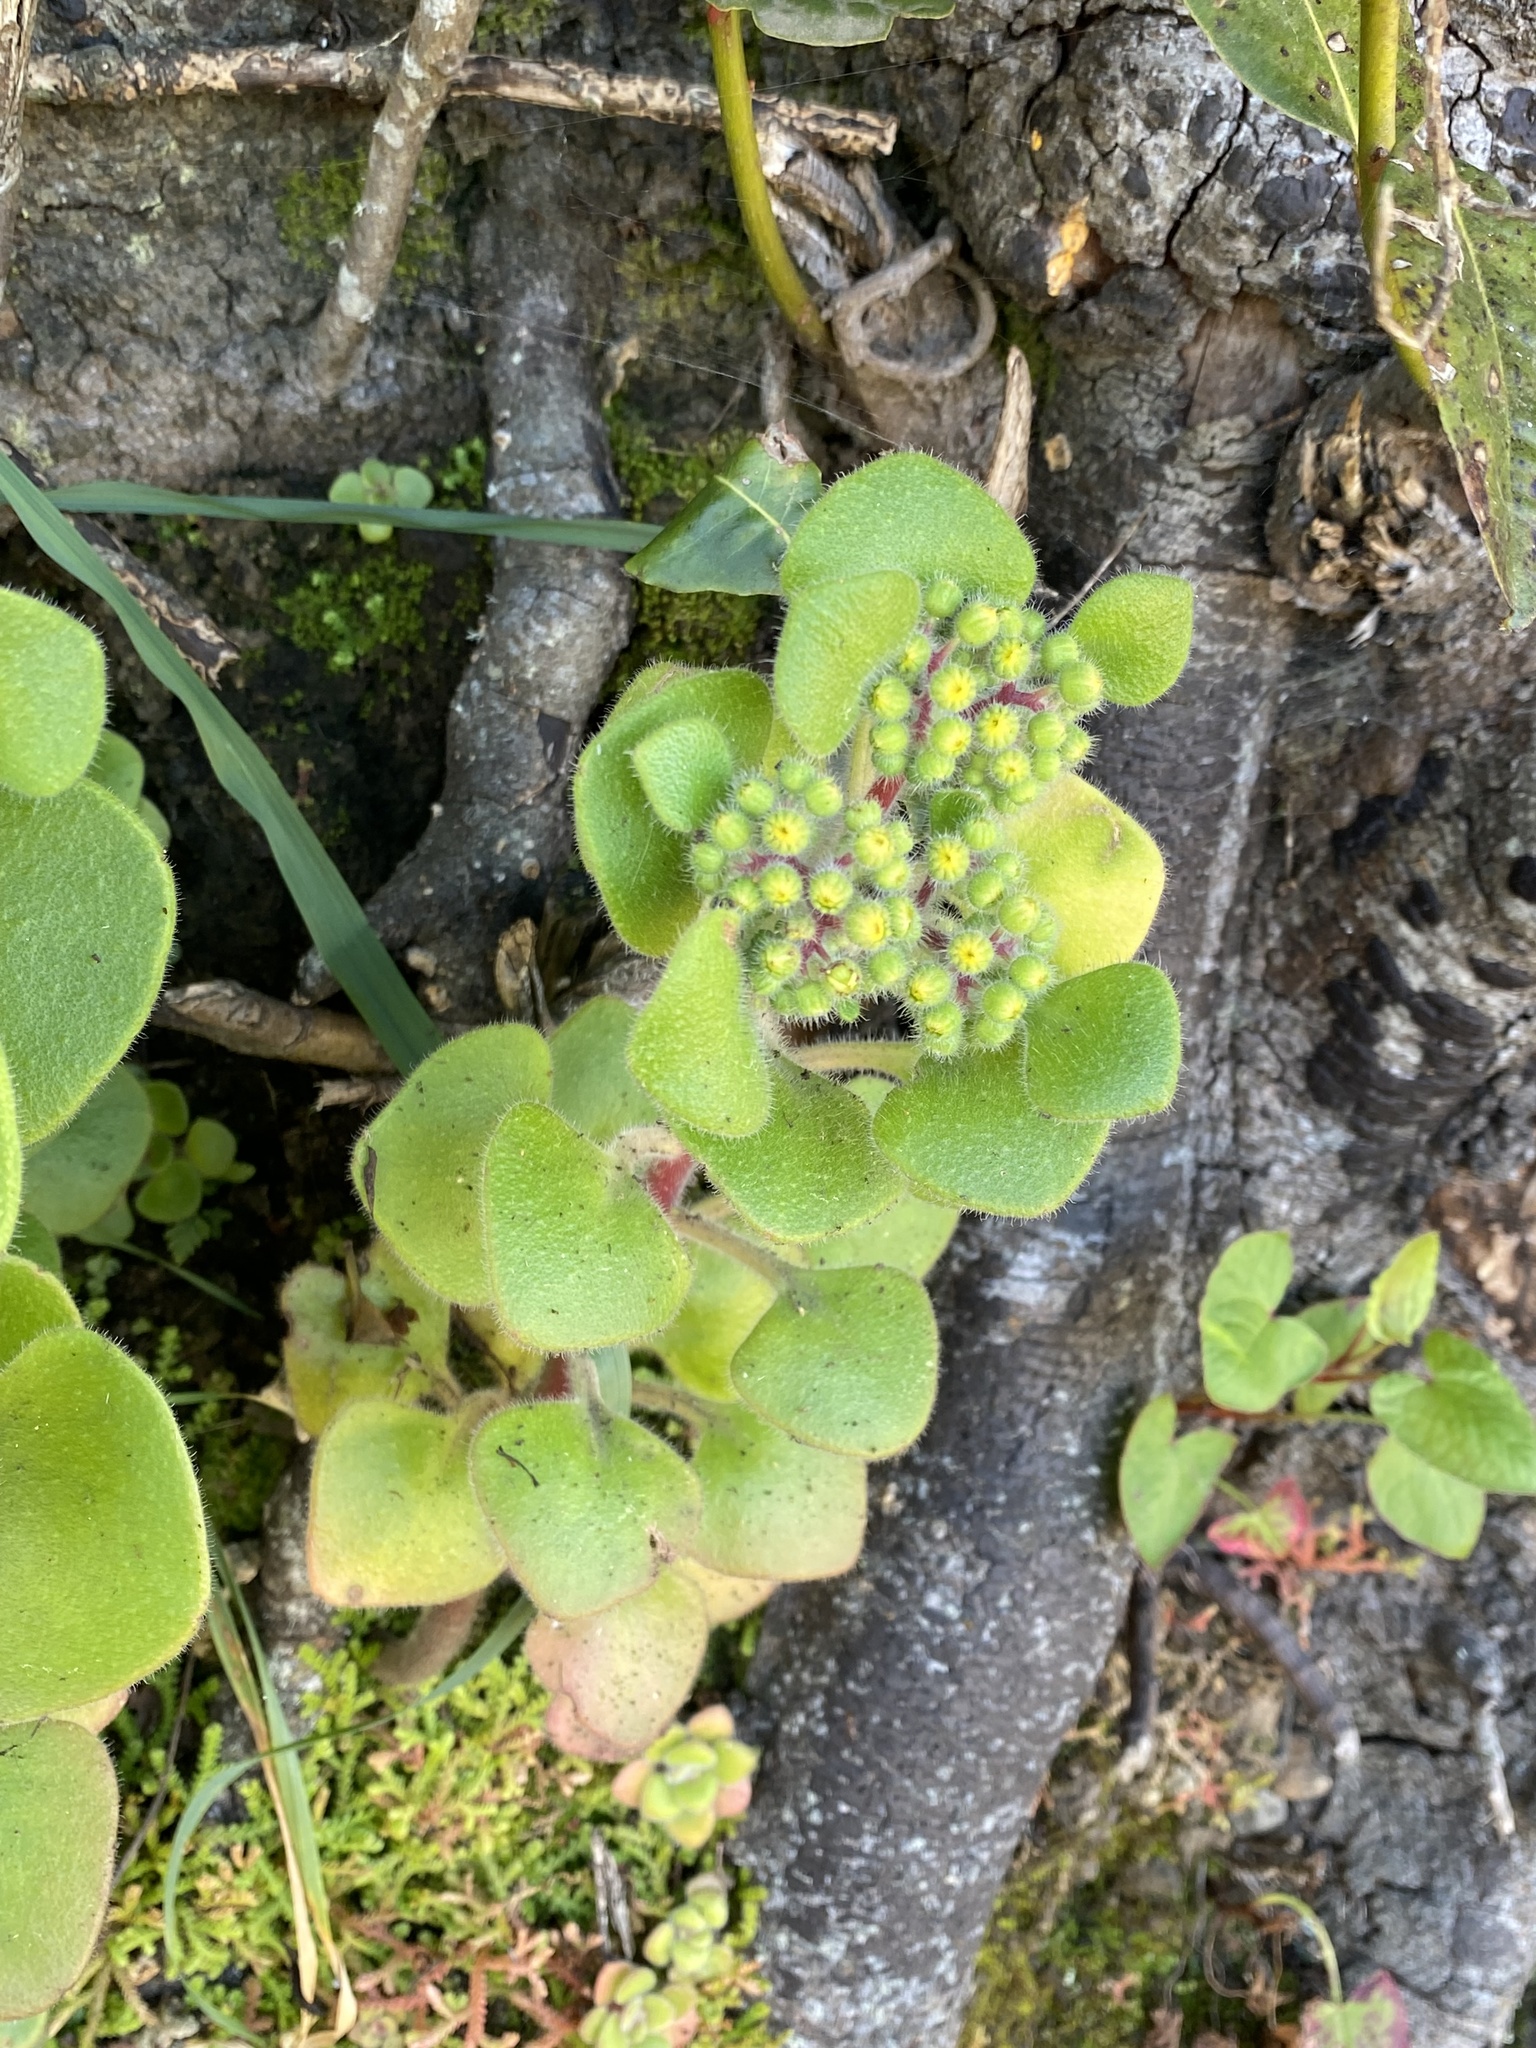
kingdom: Plantae
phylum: Tracheophyta
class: Magnoliopsida
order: Saxifragales
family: Crassulaceae
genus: Aichryson
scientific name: Aichryson laxum
